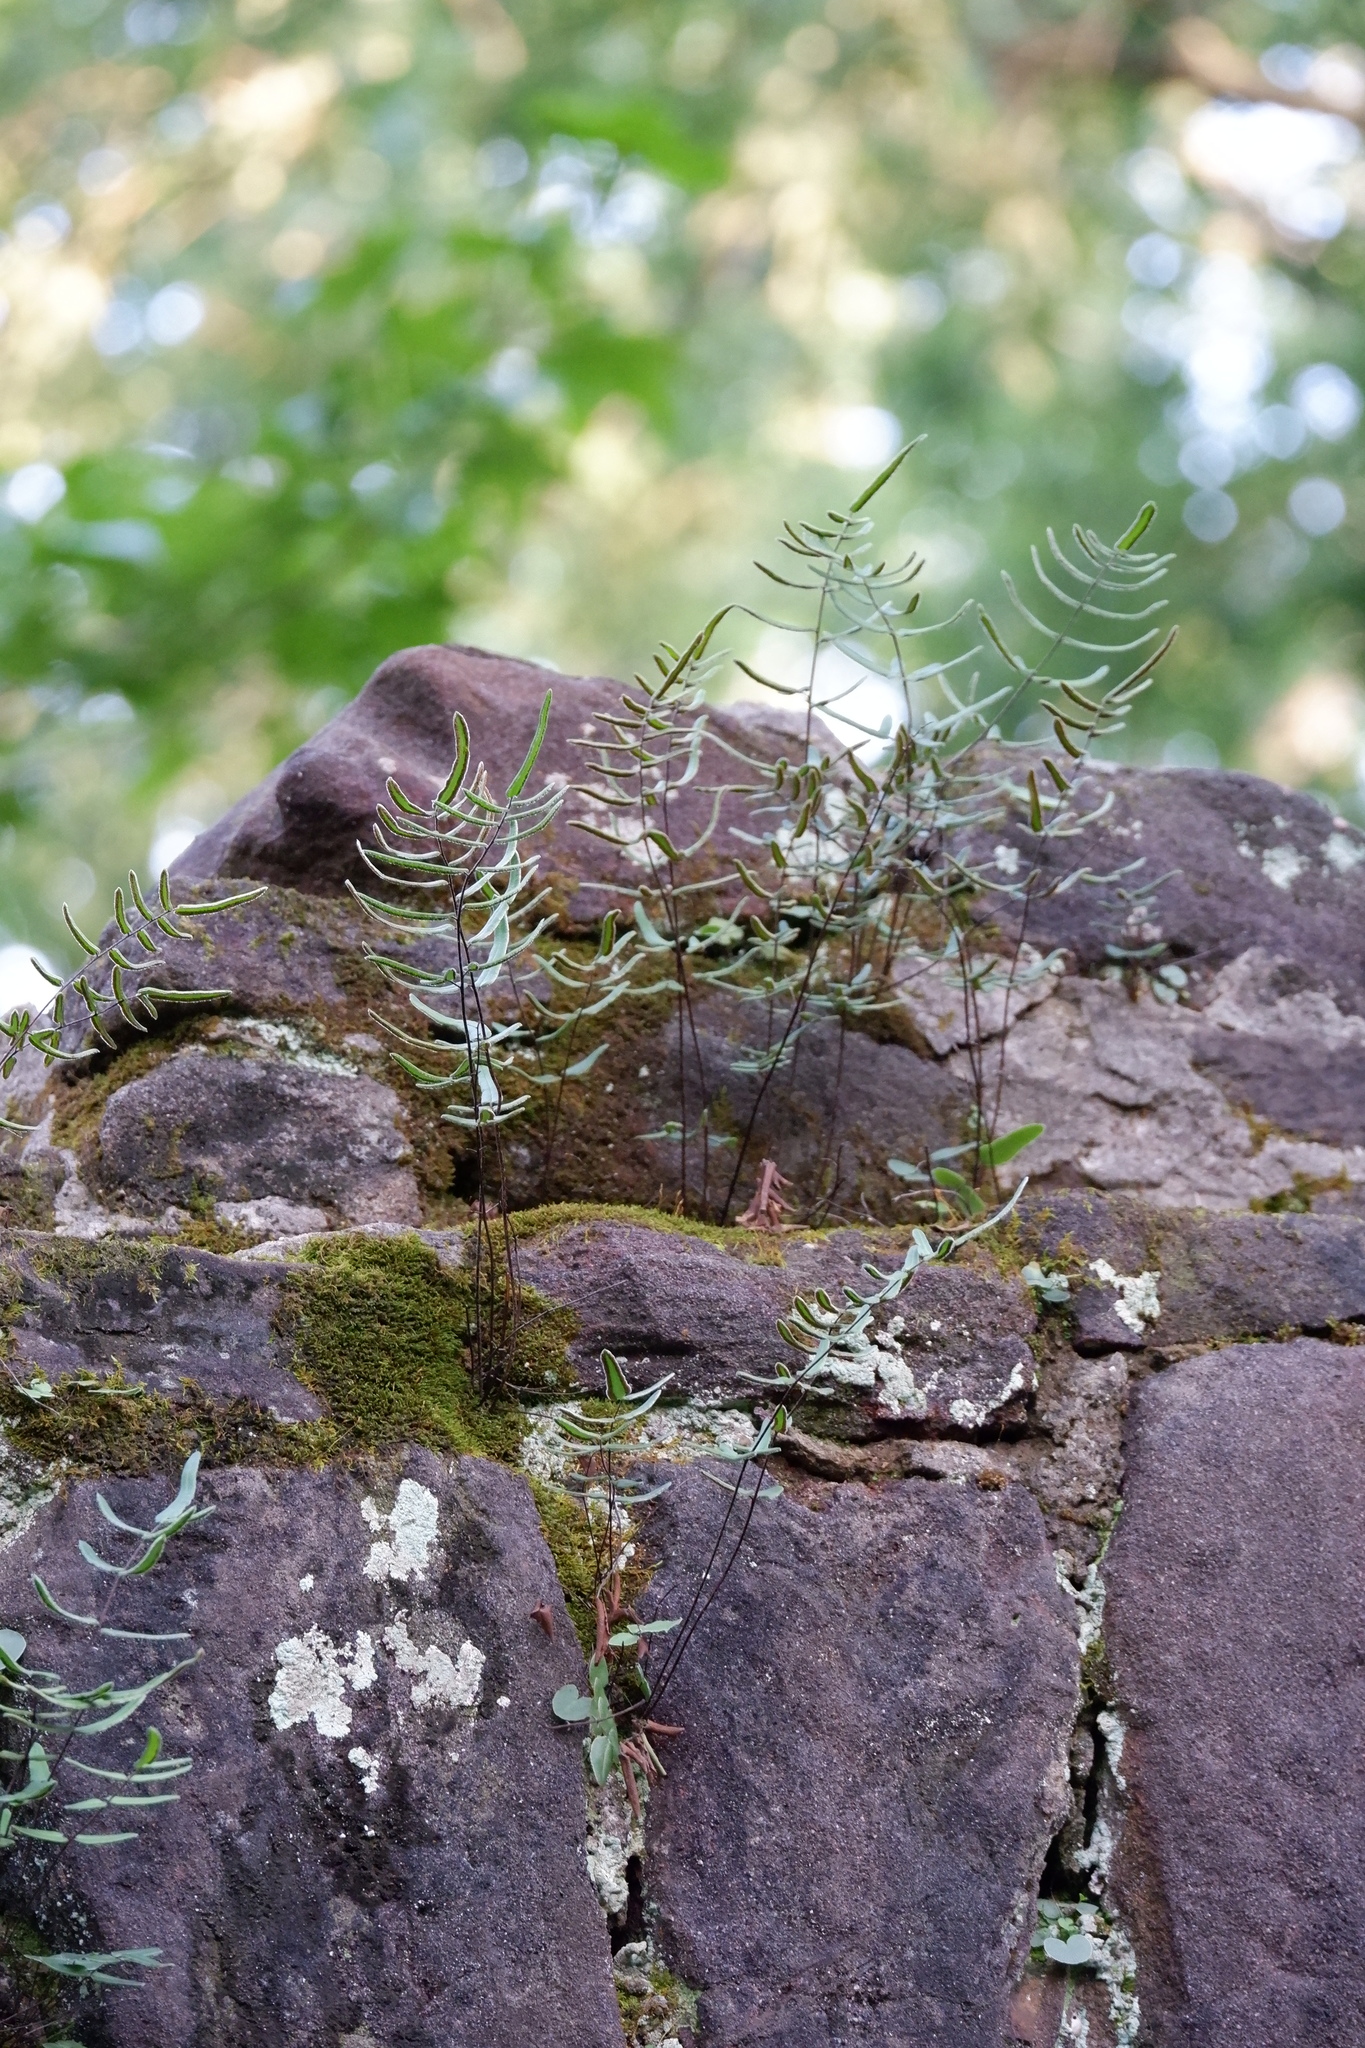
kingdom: Plantae
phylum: Tracheophyta
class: Polypodiopsida
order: Polypodiales
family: Pteridaceae
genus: Pellaea
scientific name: Pellaea atropurpurea
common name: Hairy cliffbrake
